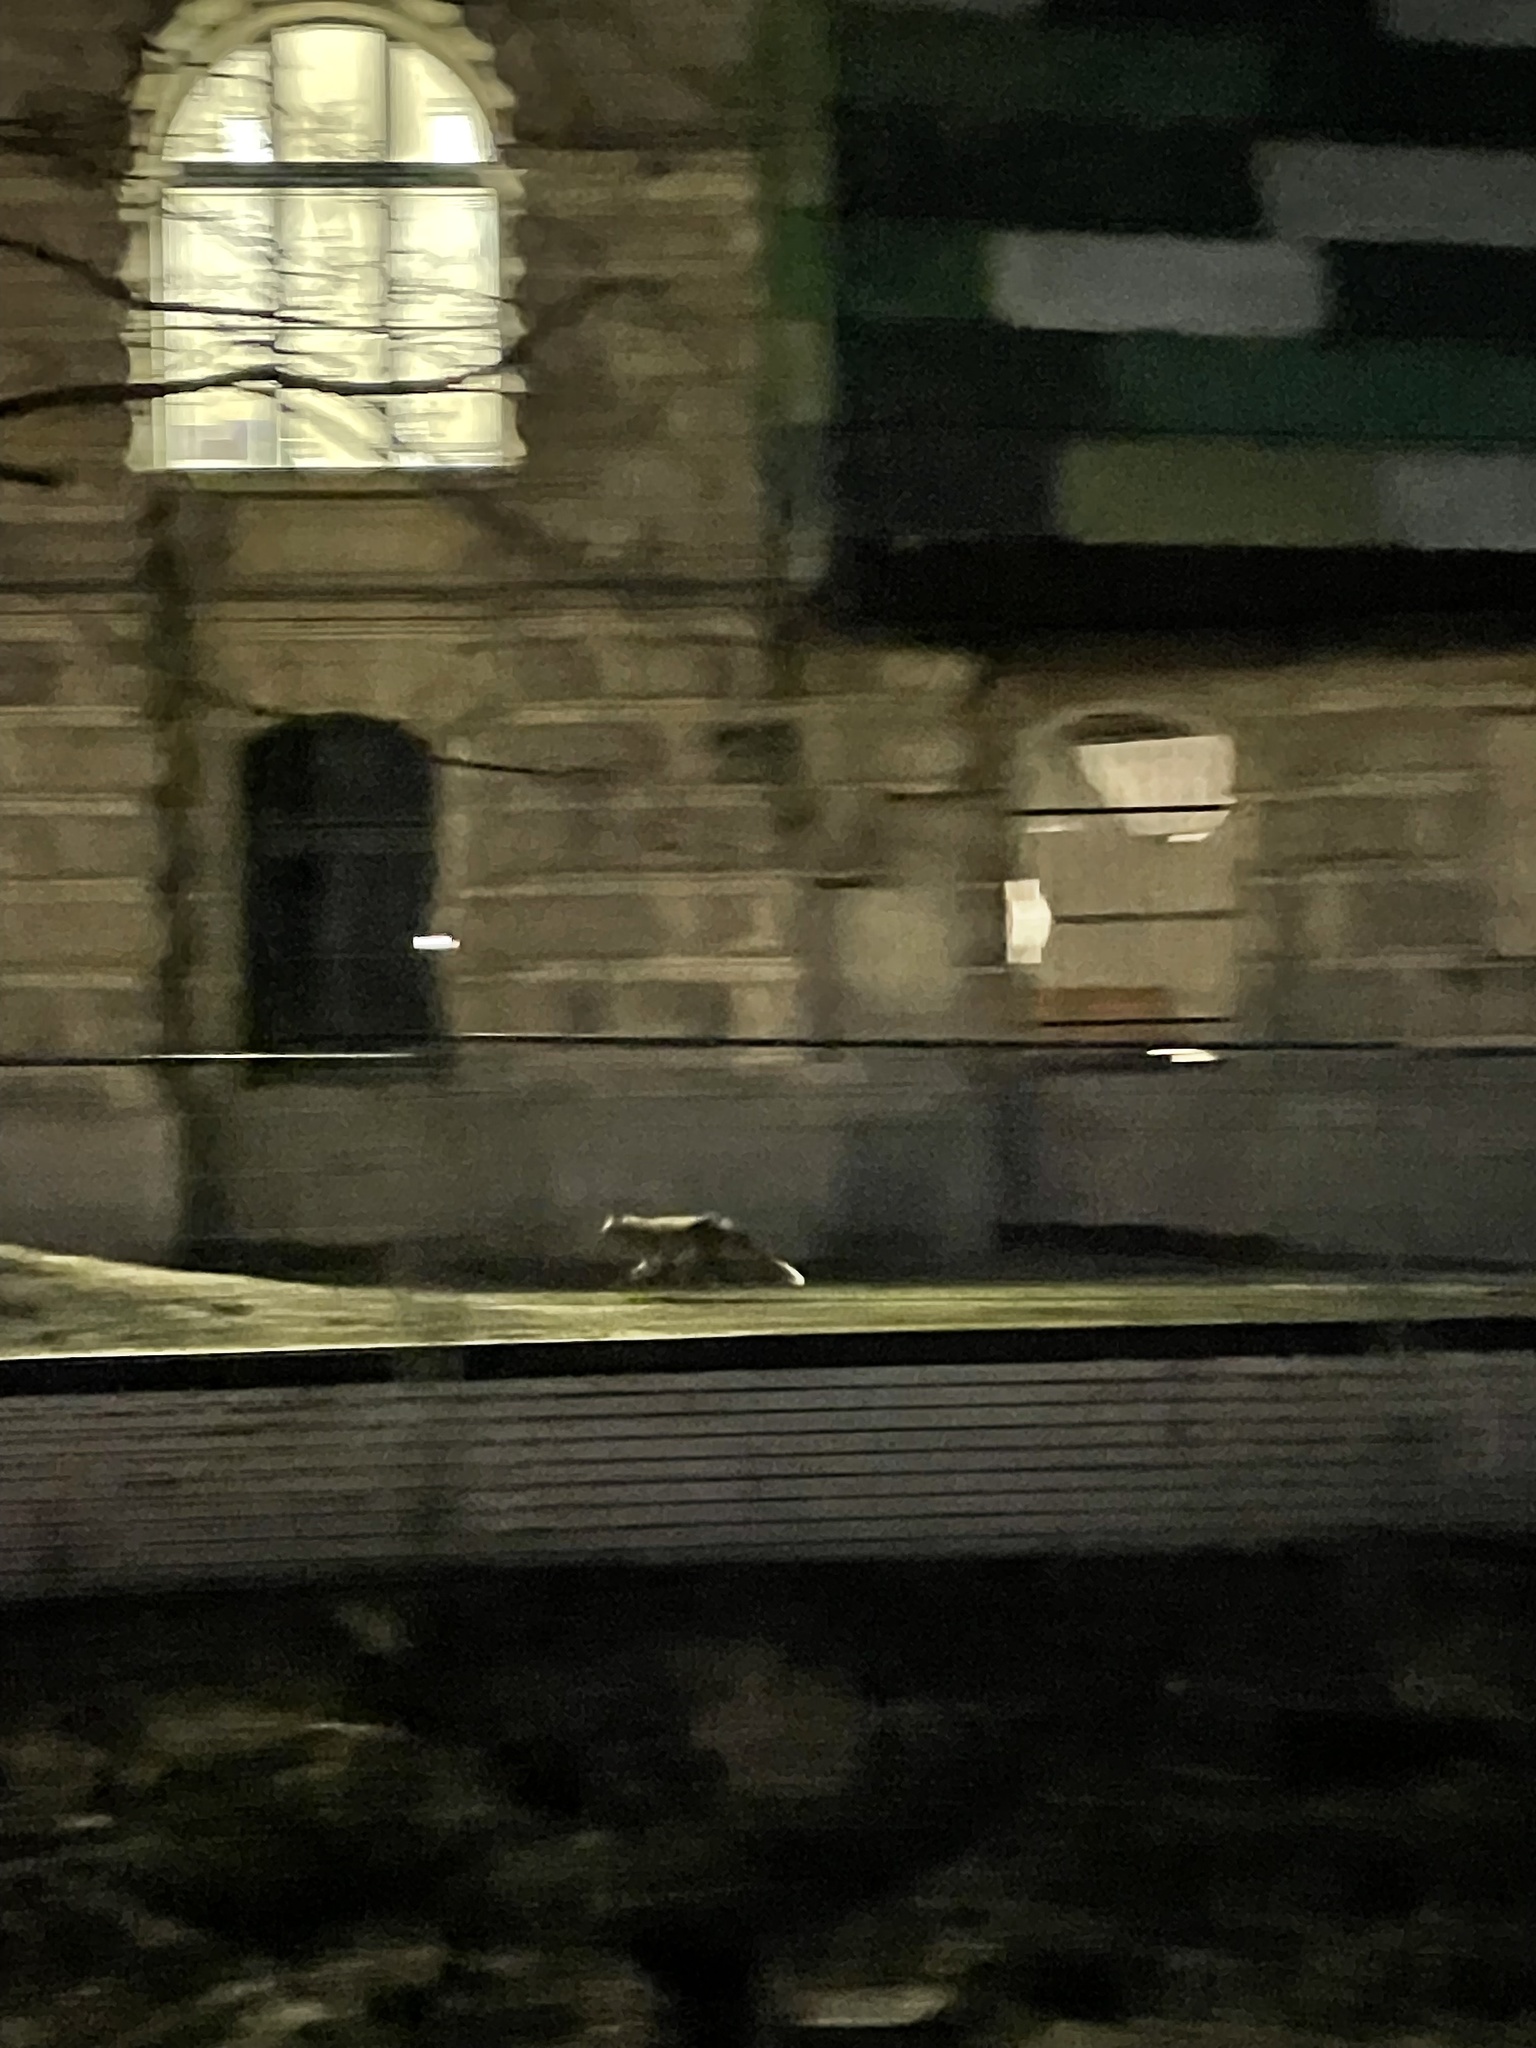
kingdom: Animalia
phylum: Chordata
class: Mammalia
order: Carnivora
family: Canidae
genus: Vulpes
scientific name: Vulpes vulpes
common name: Red fox
